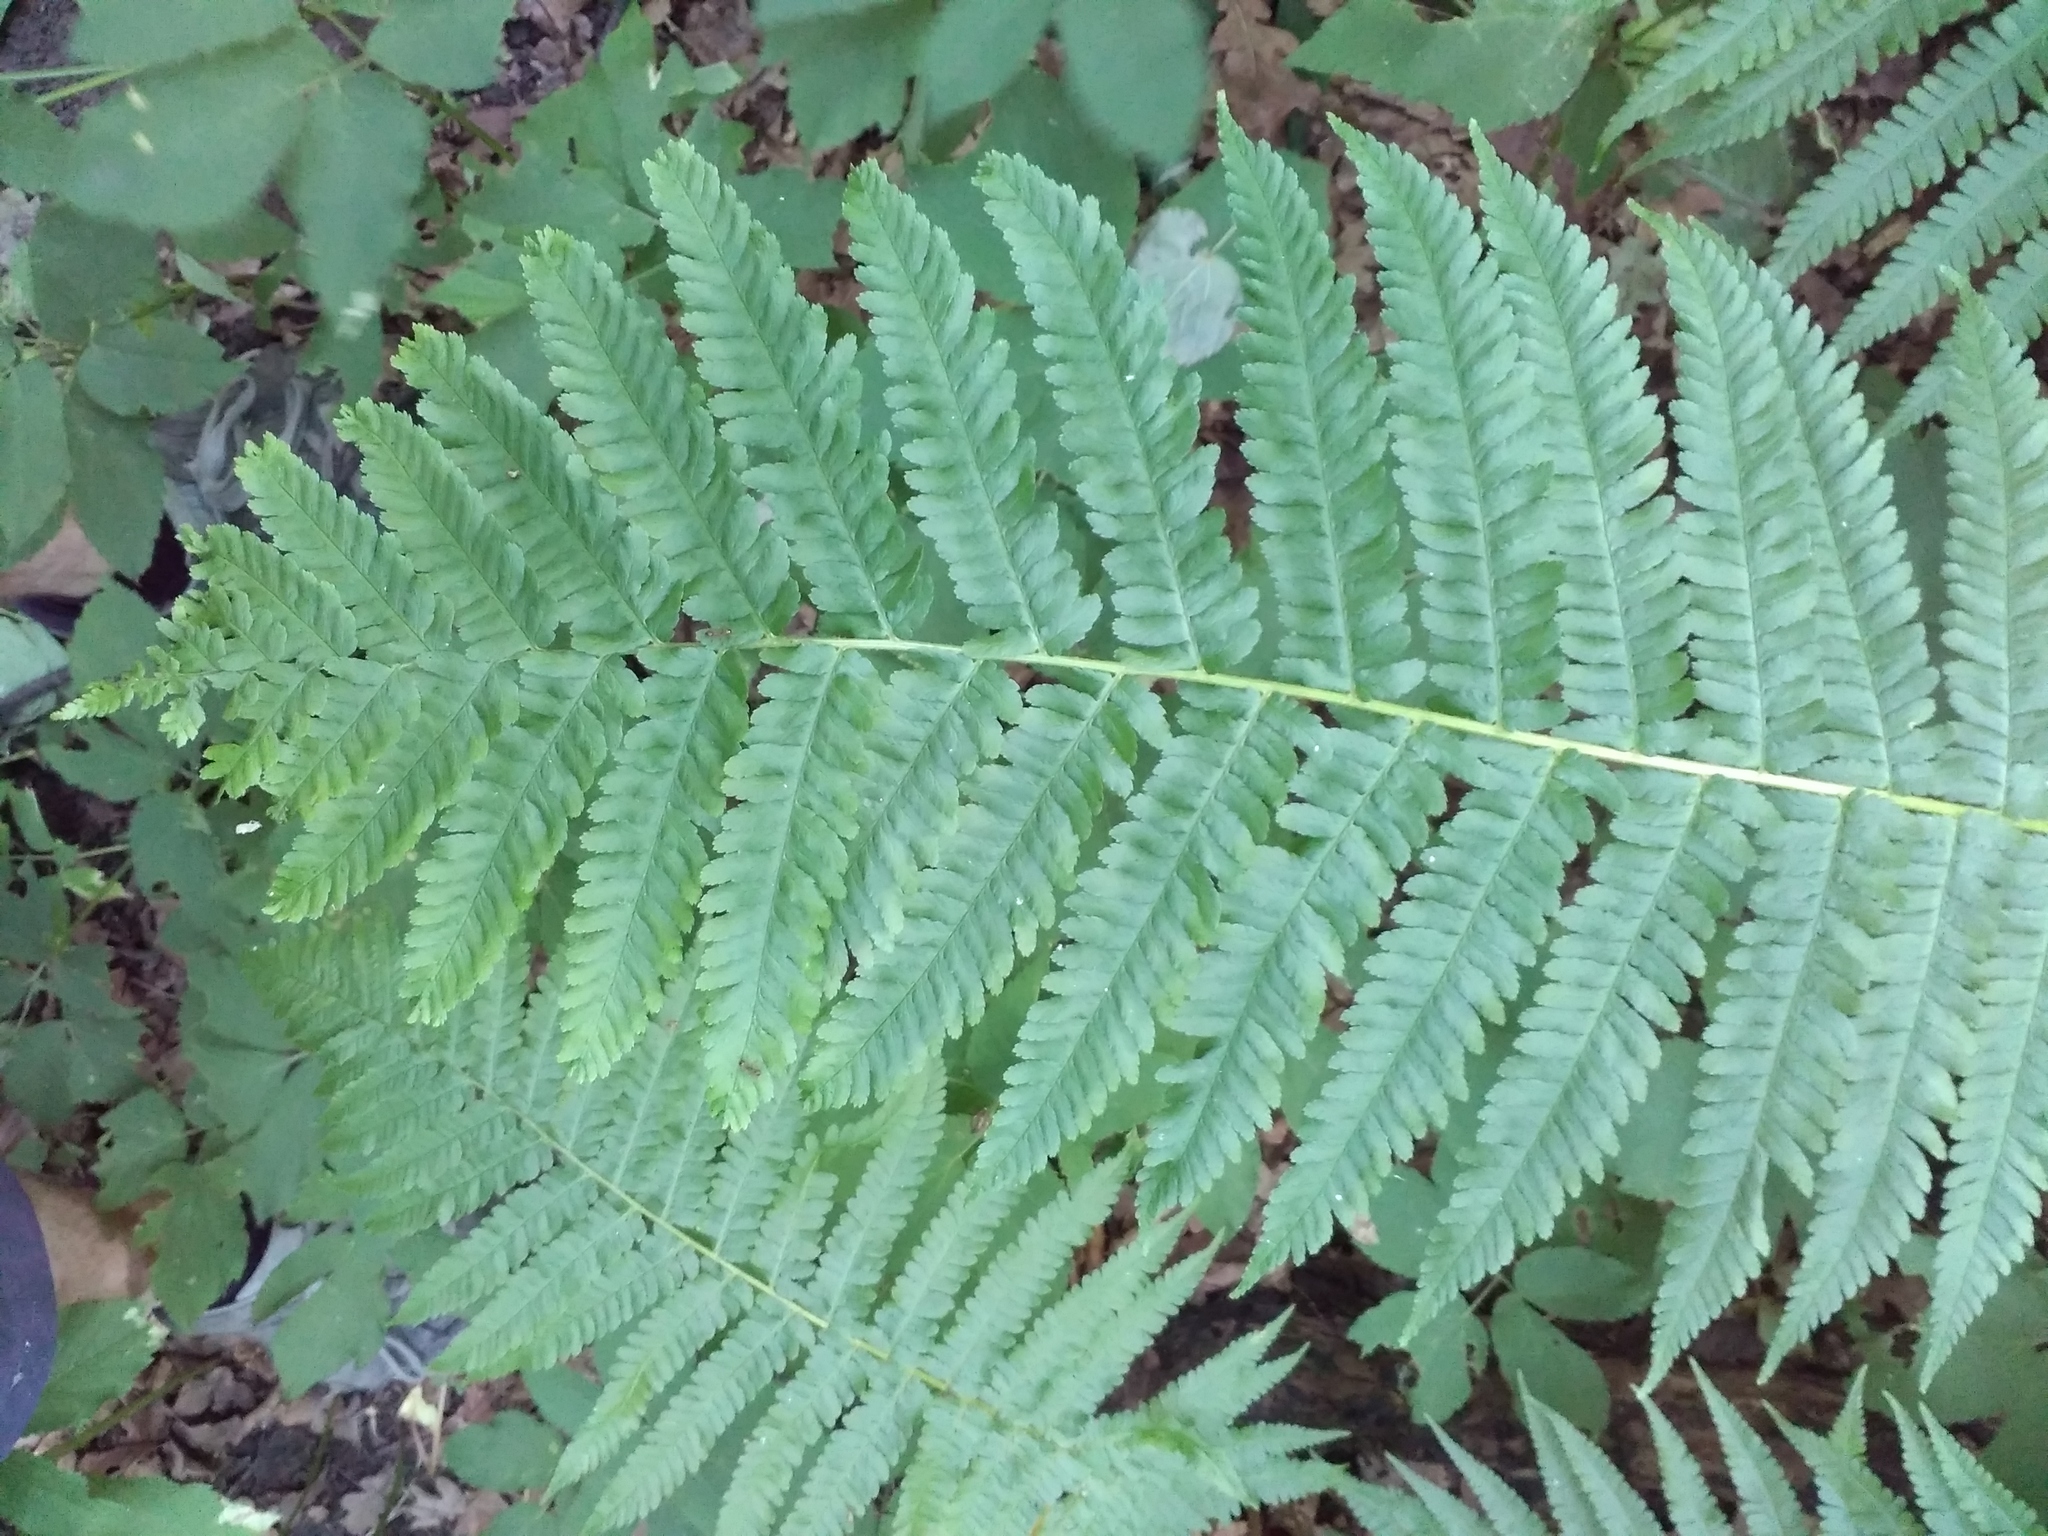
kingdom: Plantae
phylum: Tracheophyta
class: Polypodiopsida
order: Polypodiales
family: Dryopteridaceae
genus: Dryopteris
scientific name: Dryopteris filix-mas
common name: Male fern
